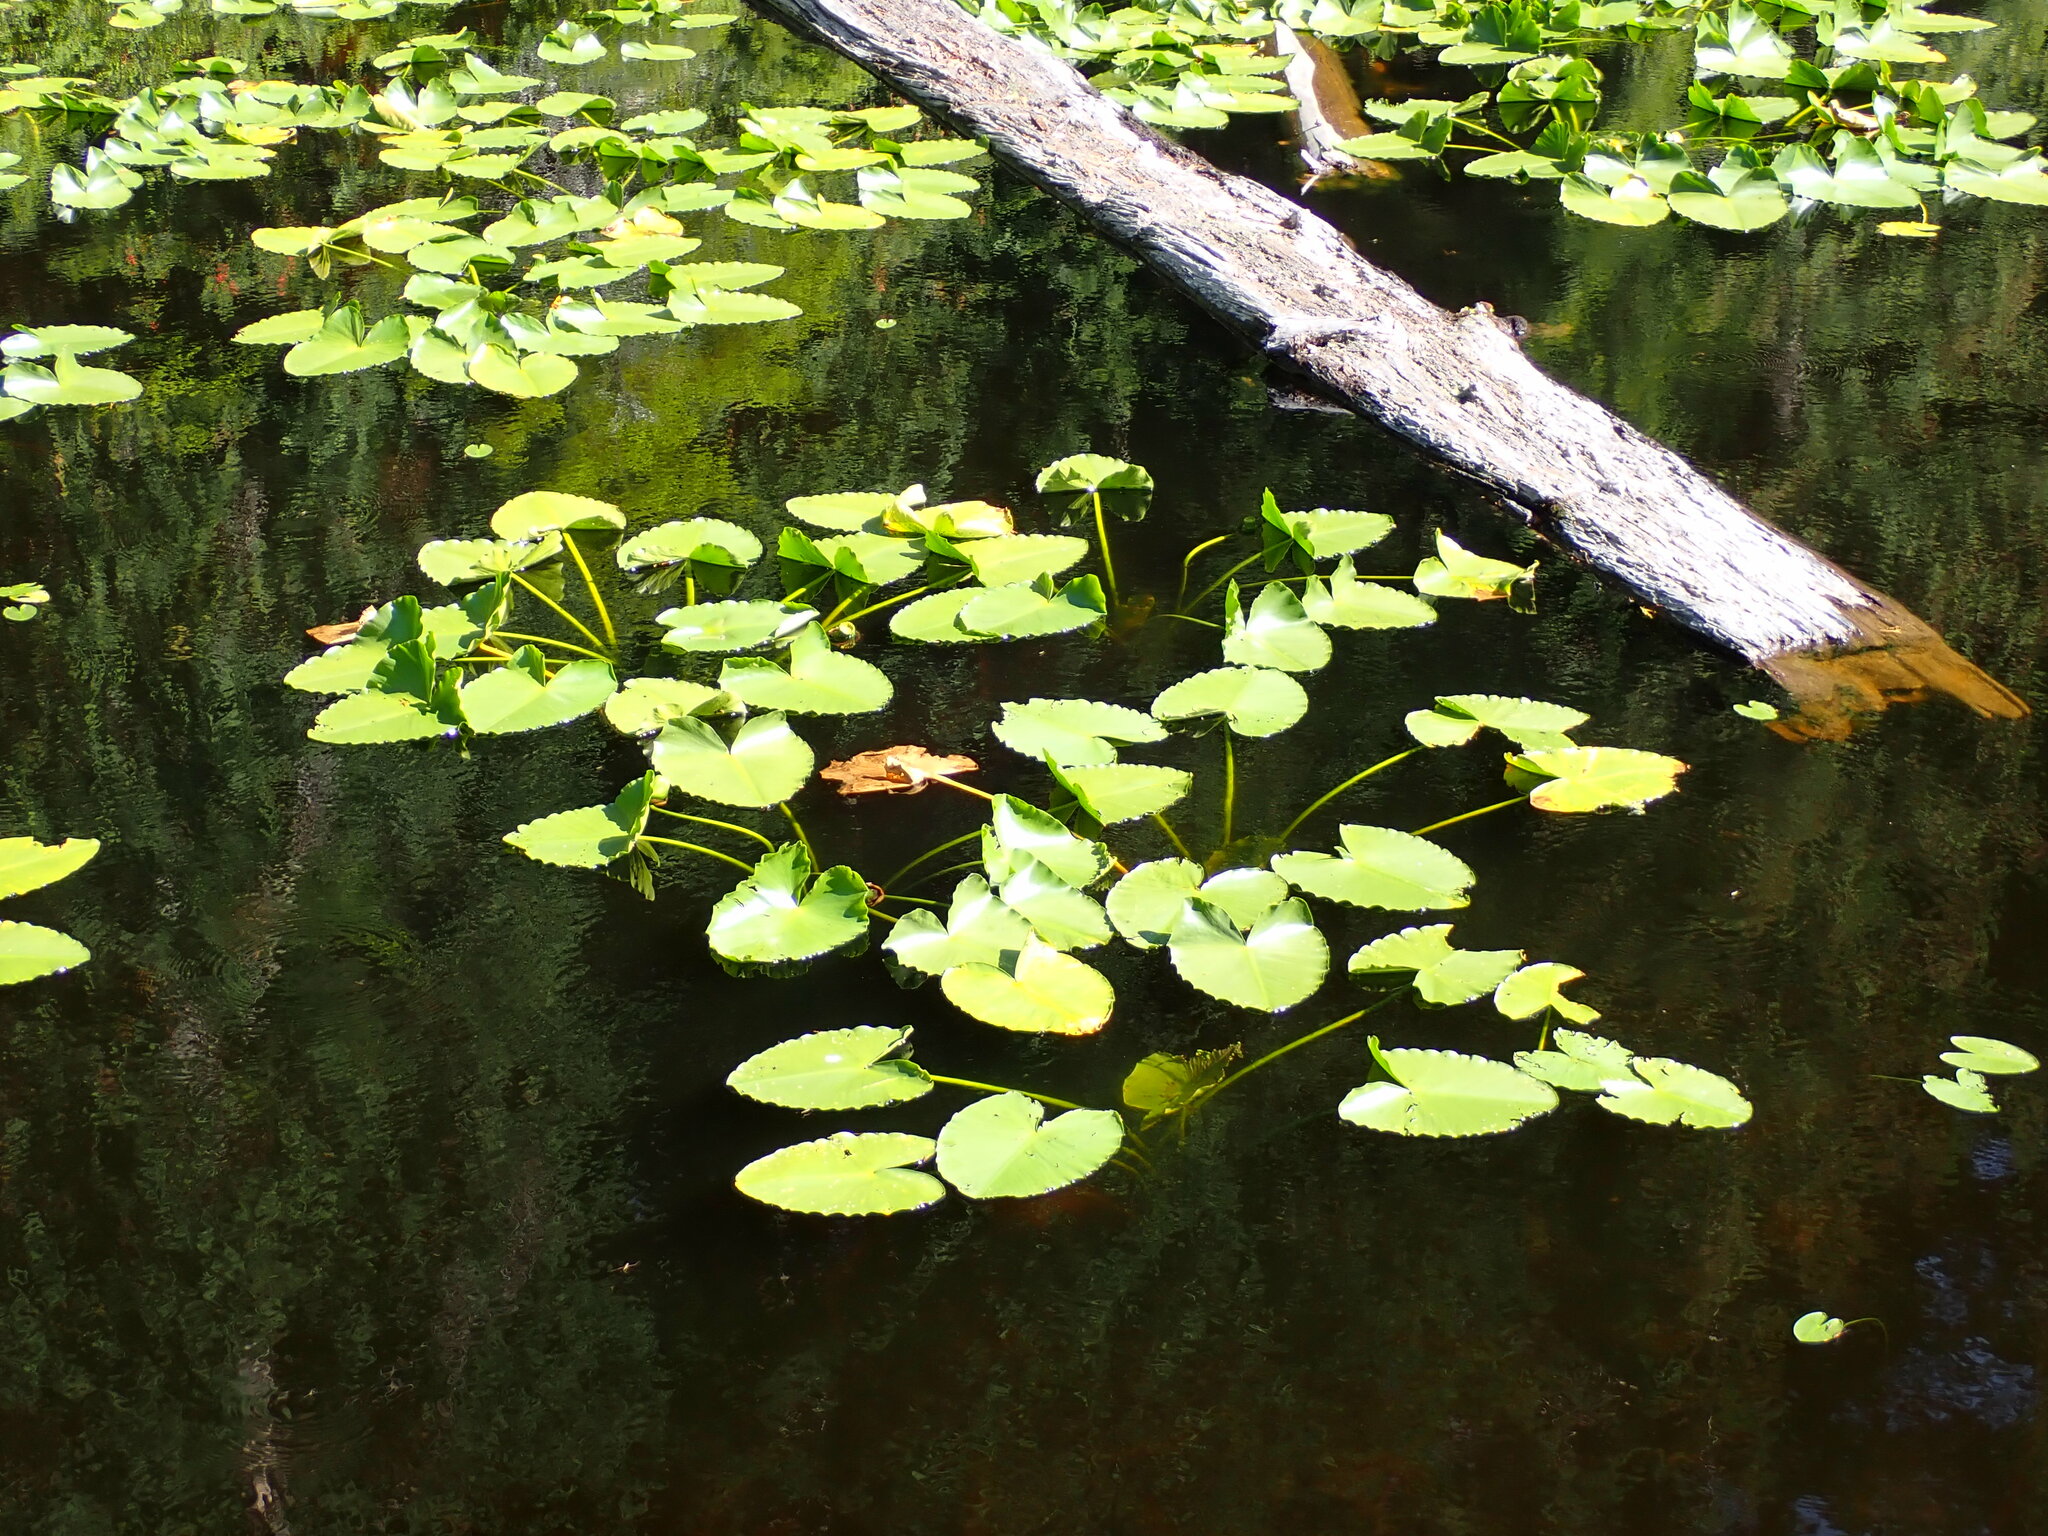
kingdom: Plantae
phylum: Tracheophyta
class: Magnoliopsida
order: Nymphaeales
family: Nymphaeaceae
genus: Nuphar
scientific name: Nuphar polysepala
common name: Rocky mountain cow-lily
